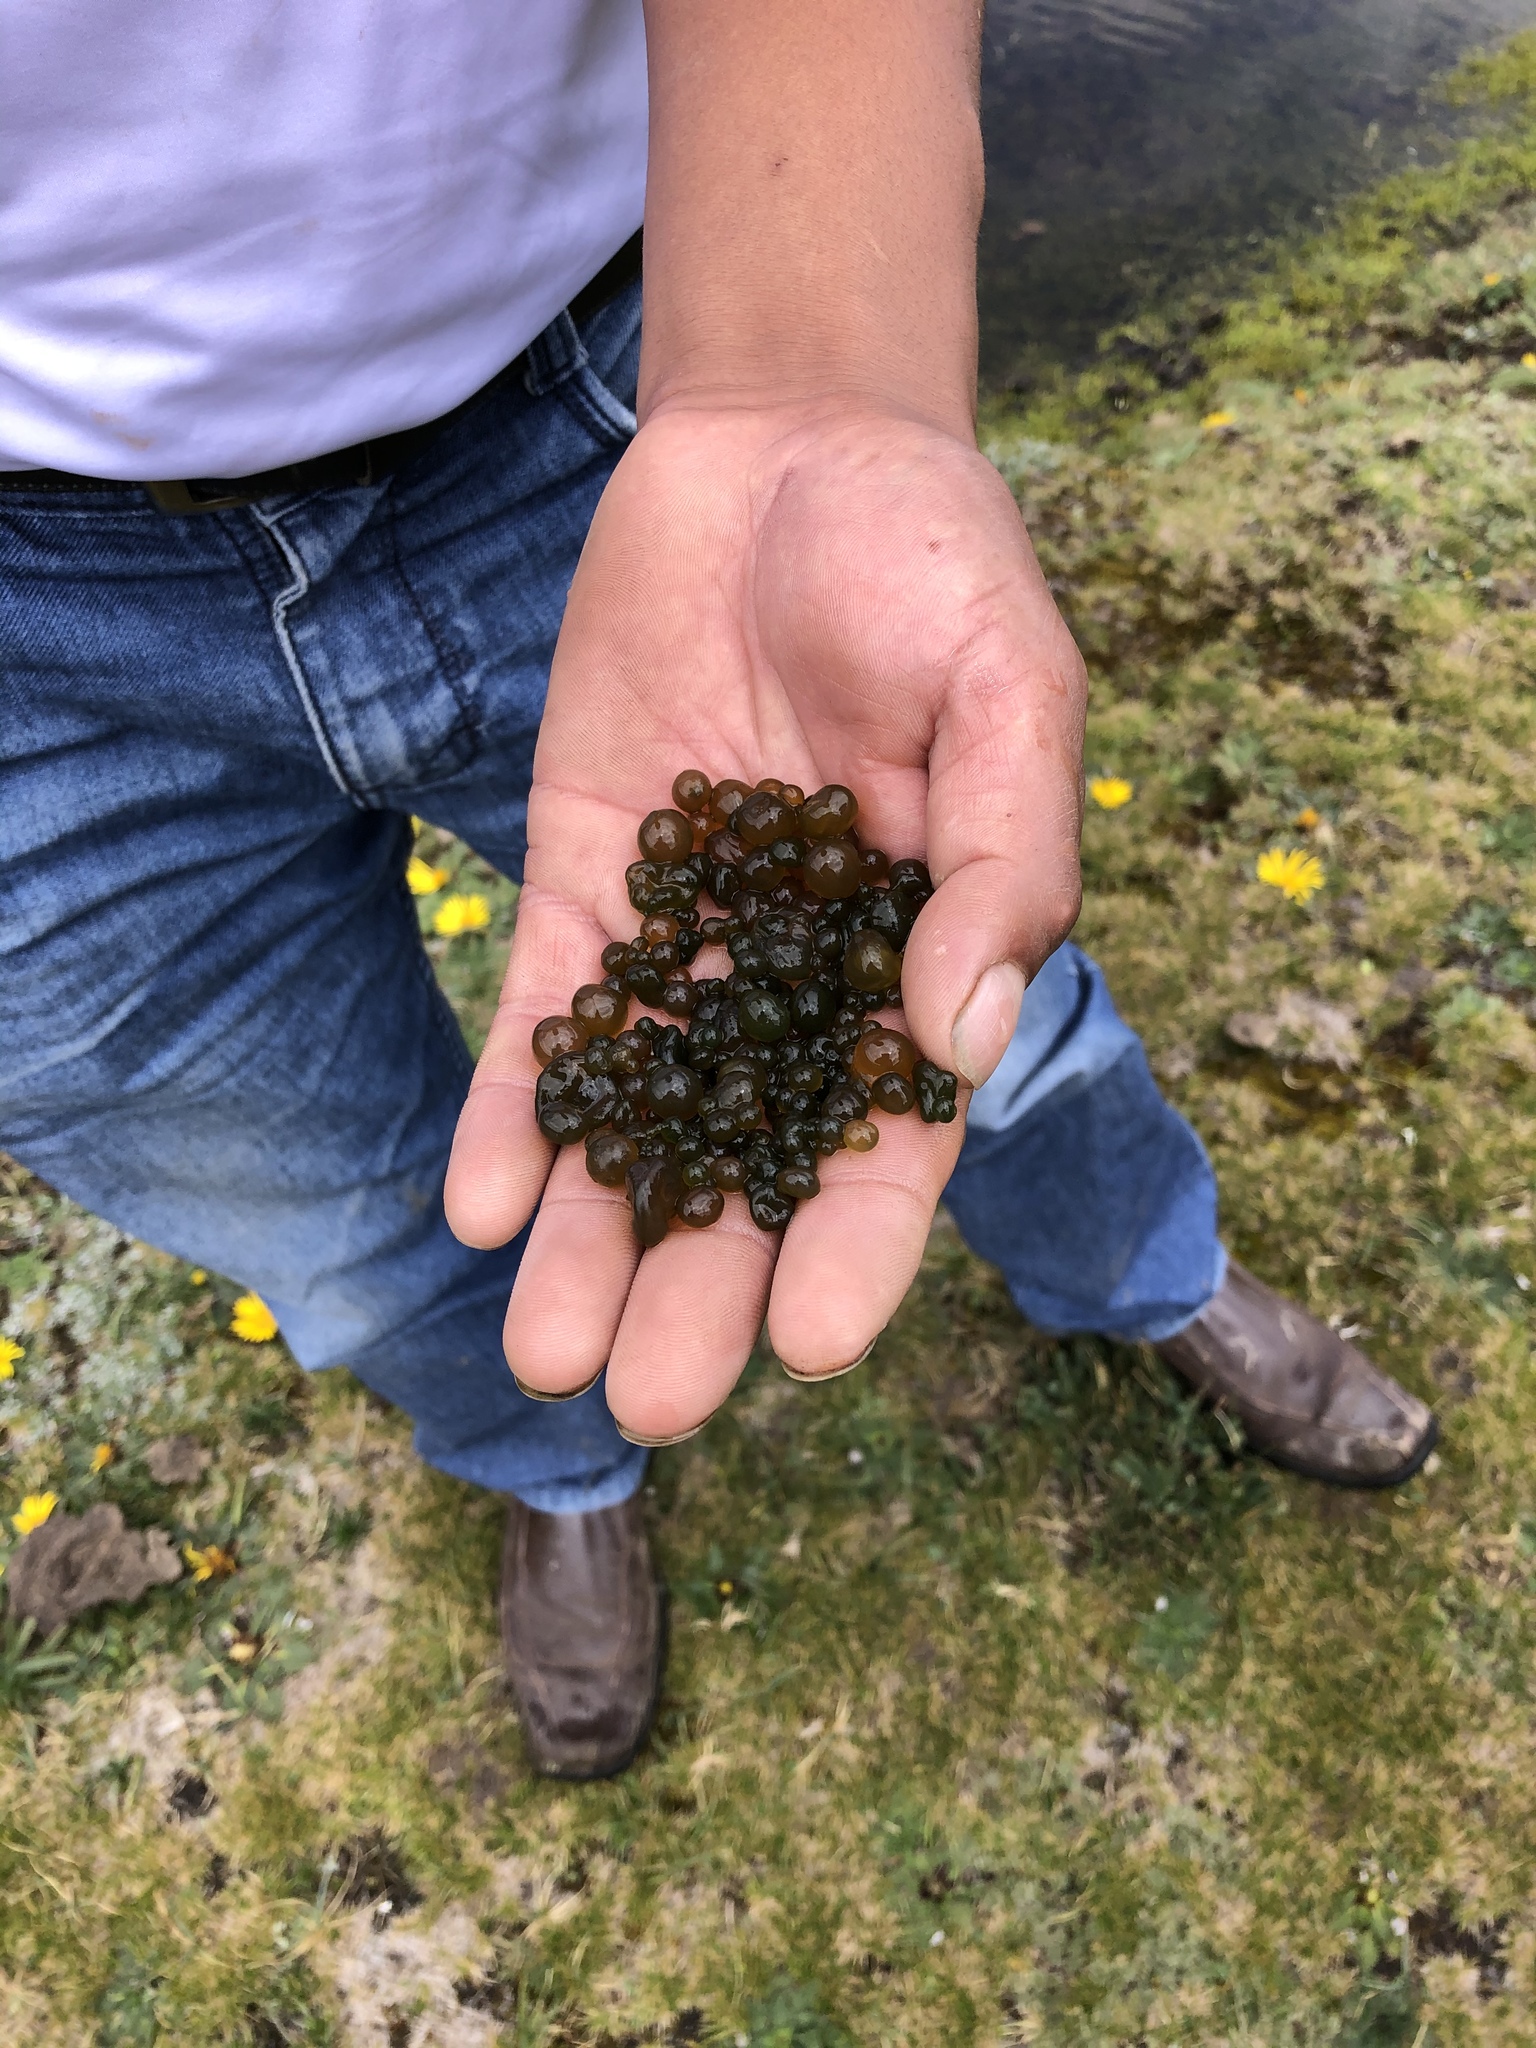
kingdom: Bacteria
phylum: Cyanobacteria
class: Cyanobacteriia
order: Cyanobacteriales
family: Nostocaceae
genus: Nostoc
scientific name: Nostoc sphaericum
